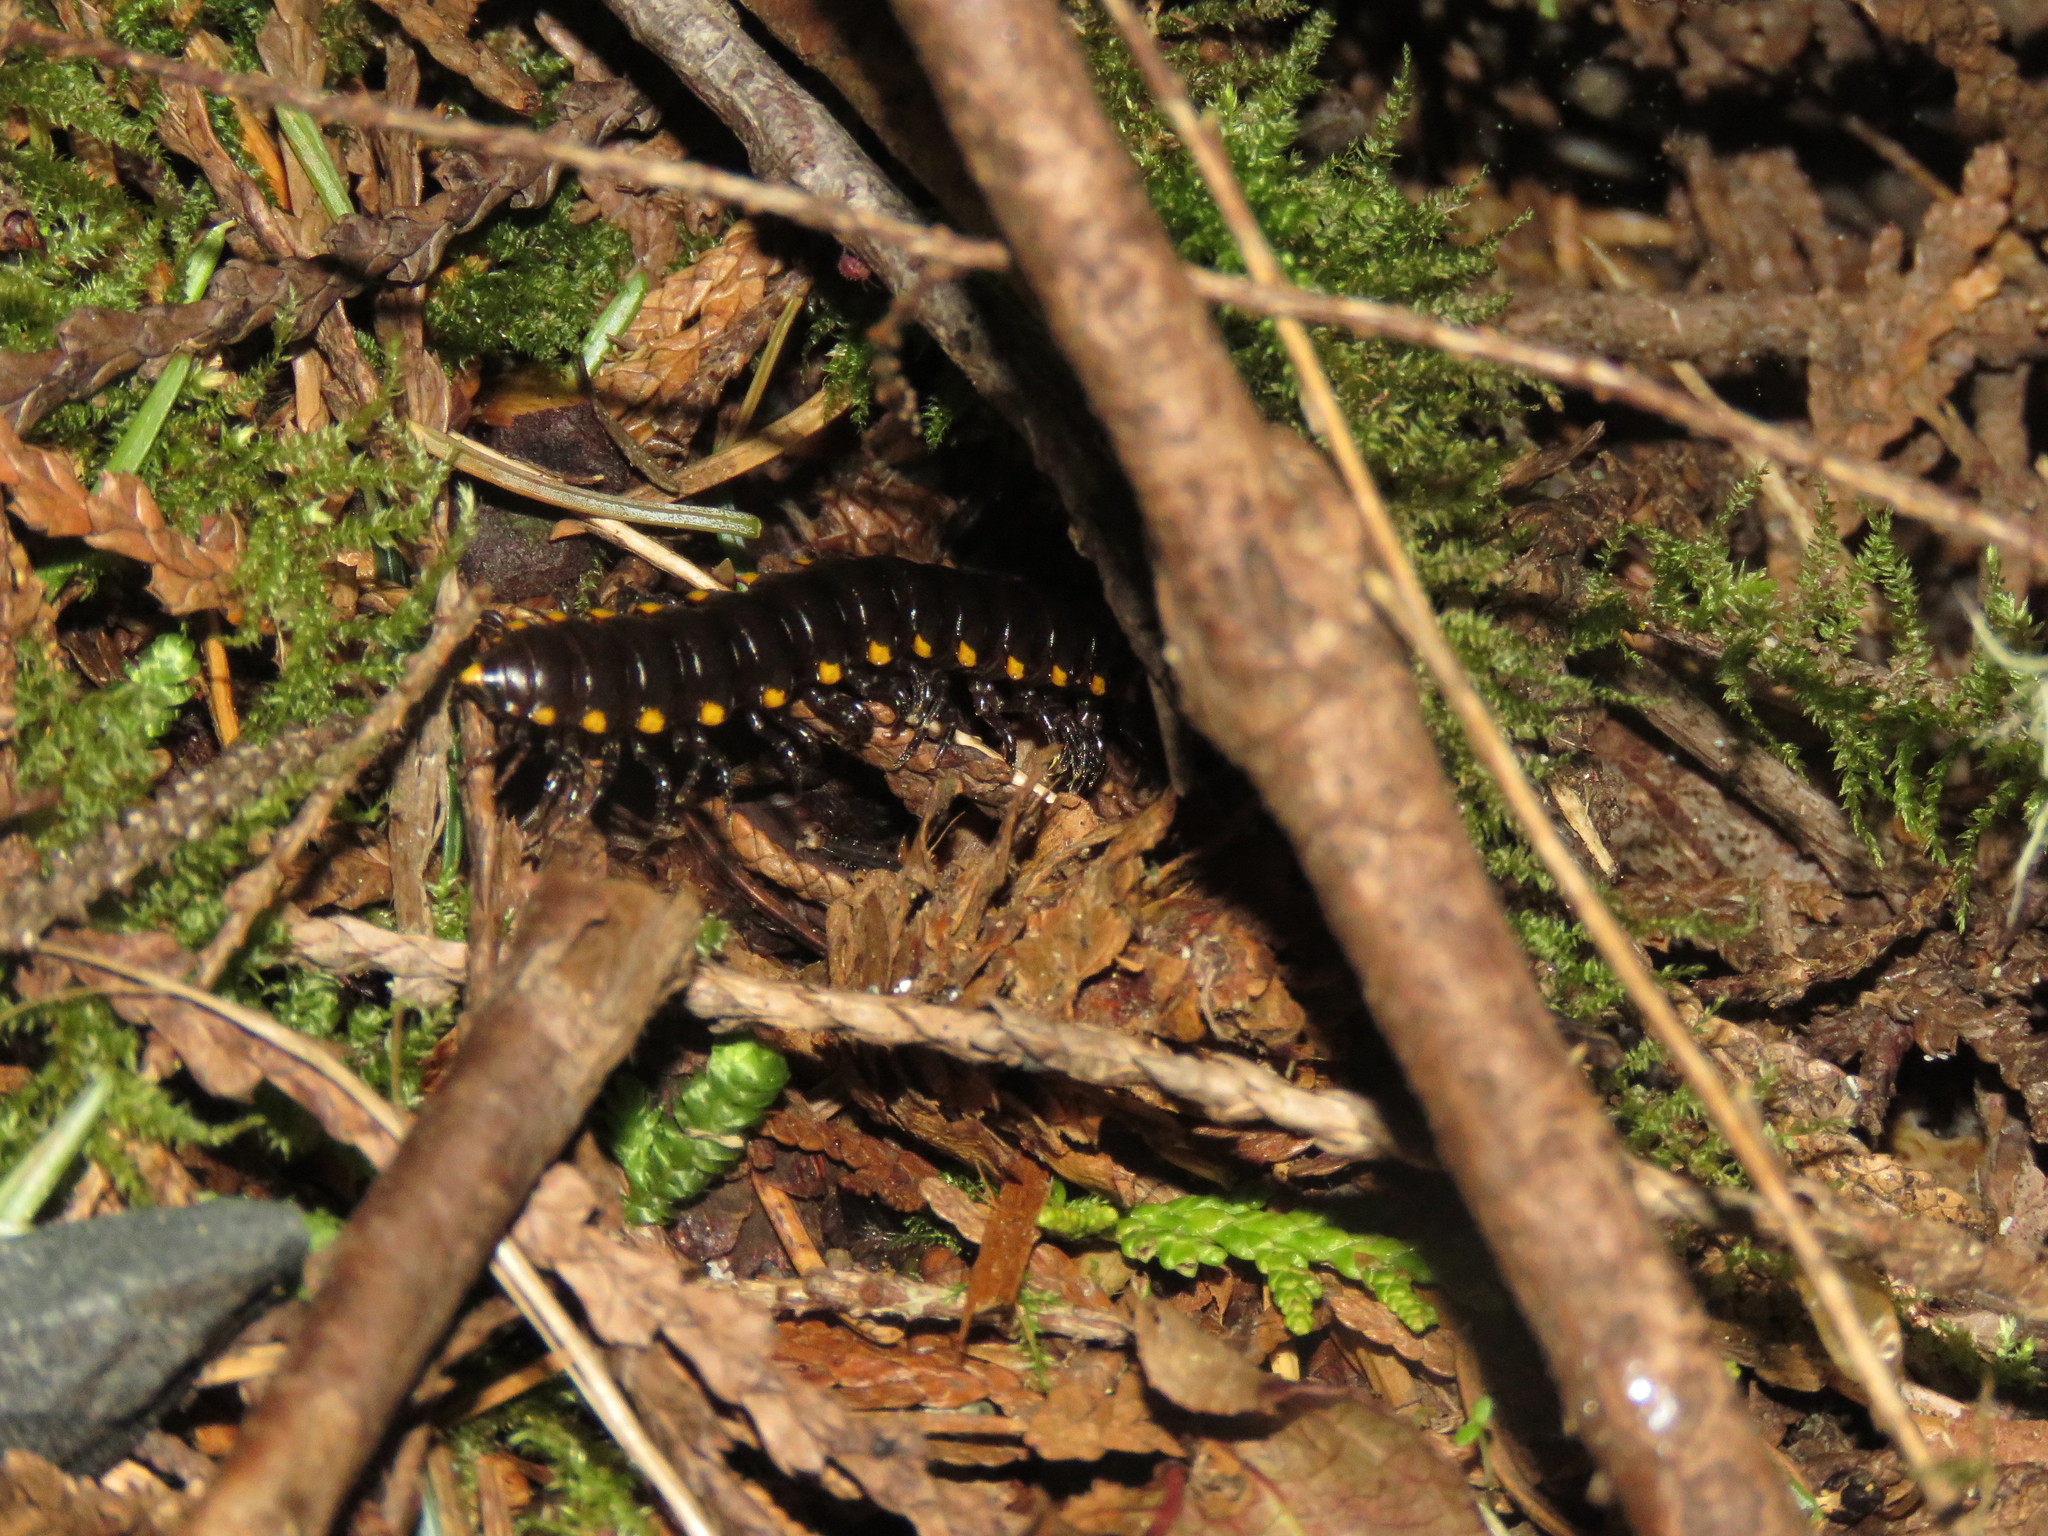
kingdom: Animalia
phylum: Arthropoda
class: Diplopoda
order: Polydesmida
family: Xystodesmidae
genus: Harpaphe
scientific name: Harpaphe haydeniana
